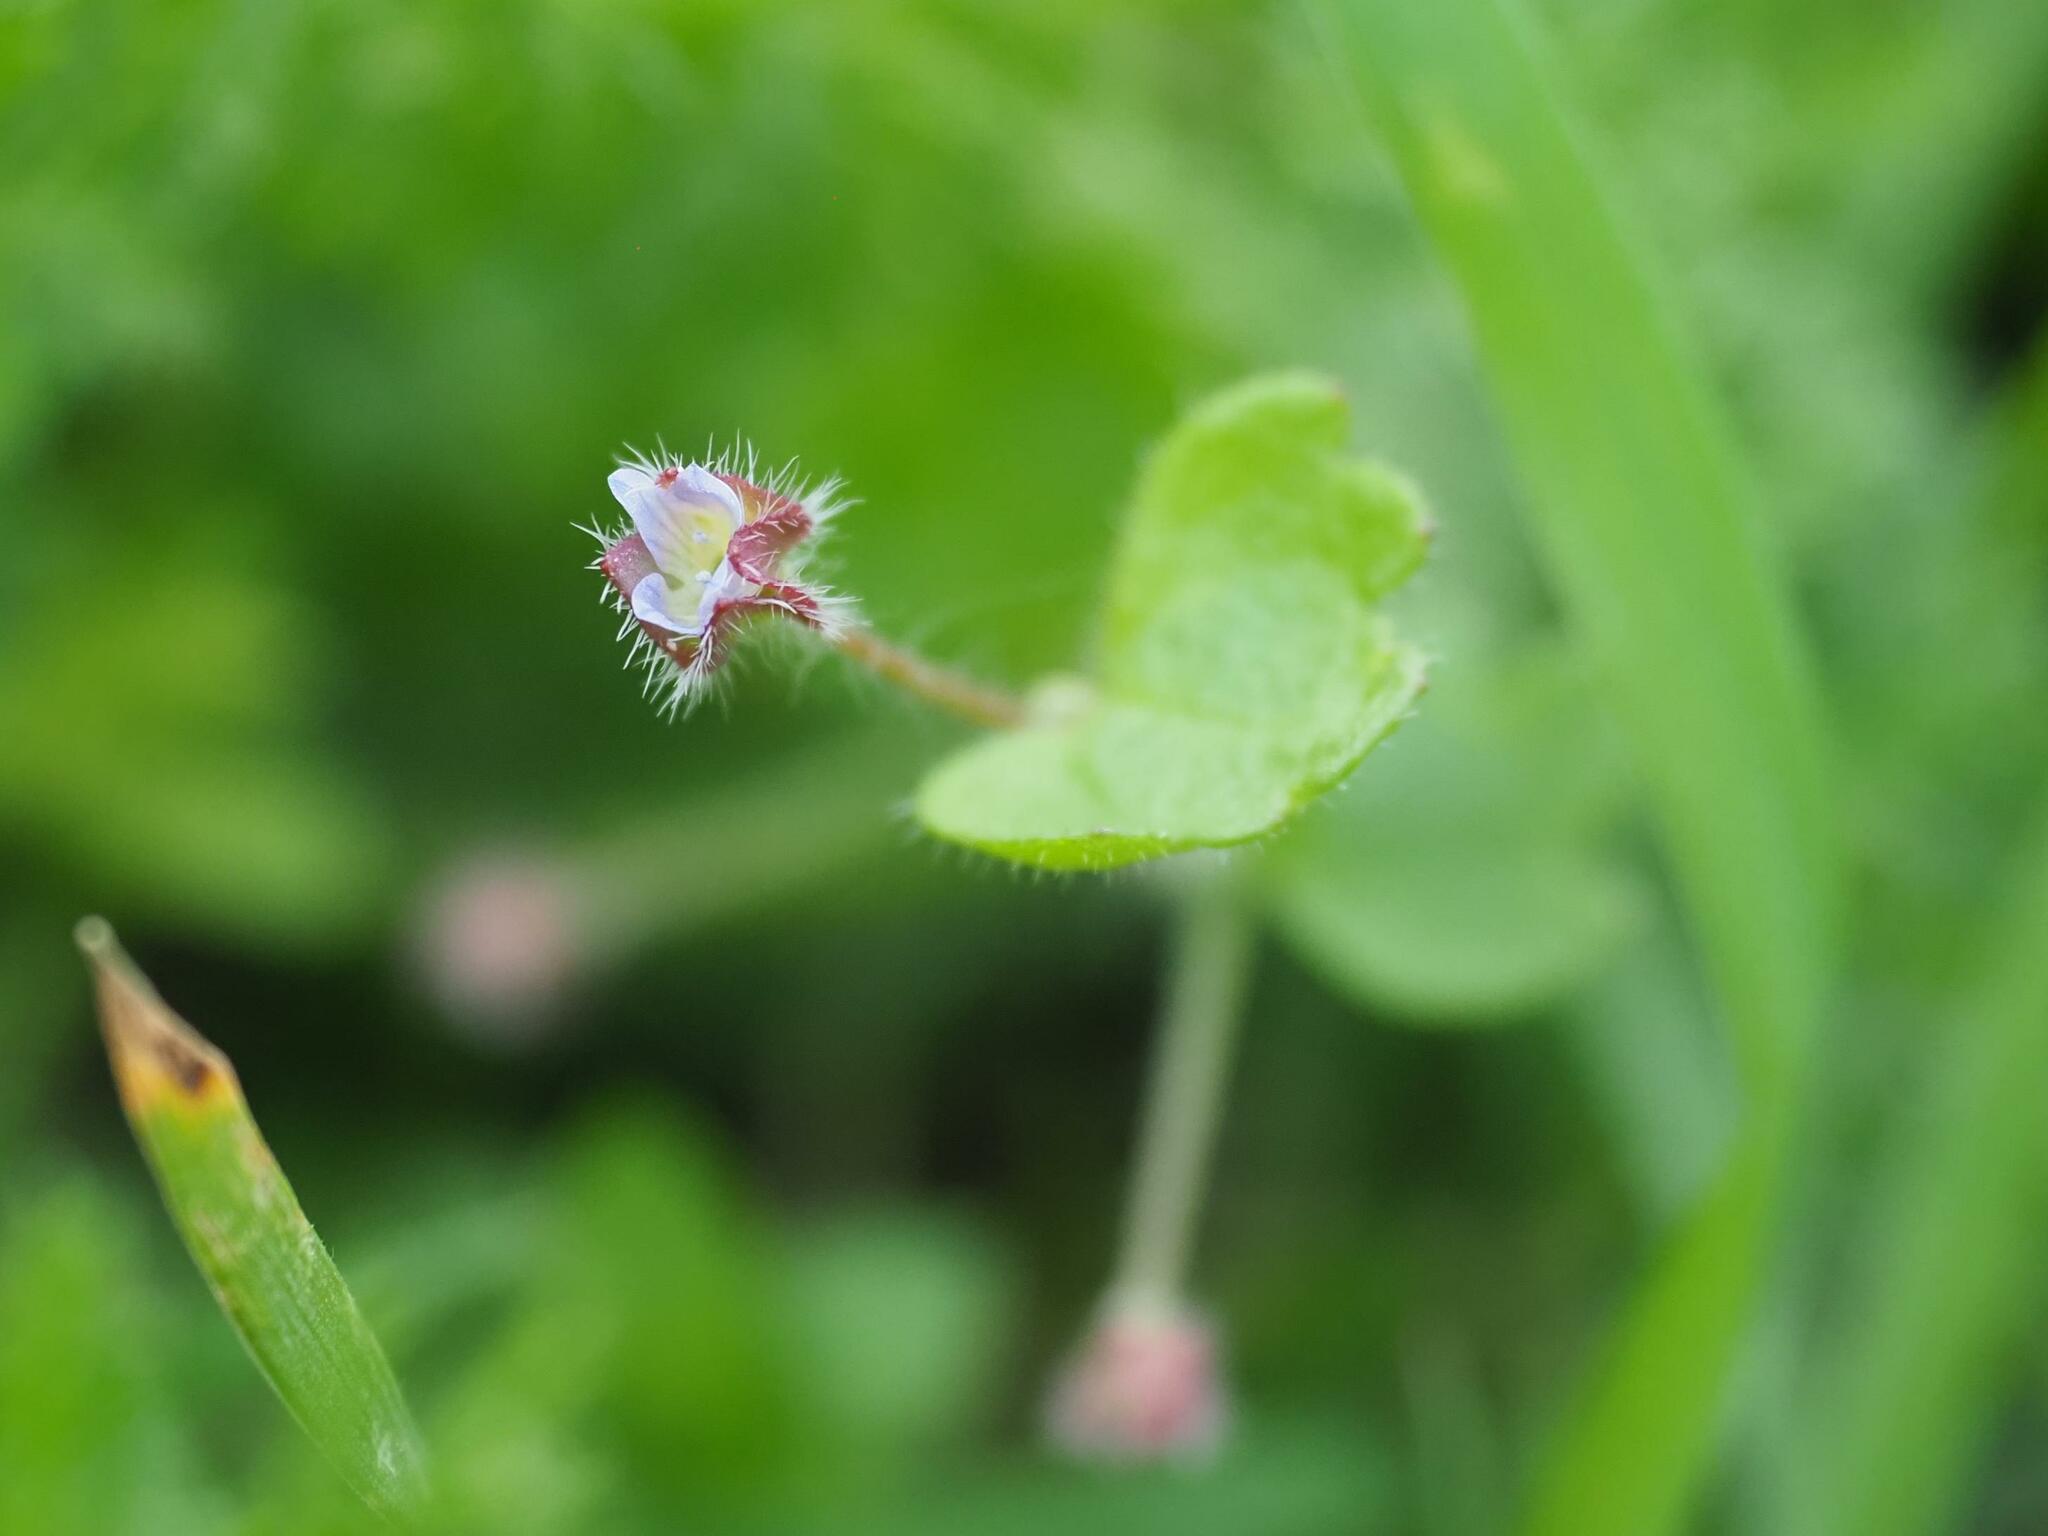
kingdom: Plantae
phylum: Tracheophyta
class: Magnoliopsida
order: Lamiales
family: Plantaginaceae
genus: Veronica
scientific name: Veronica sublobata
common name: False ivy-leaved speedwell
